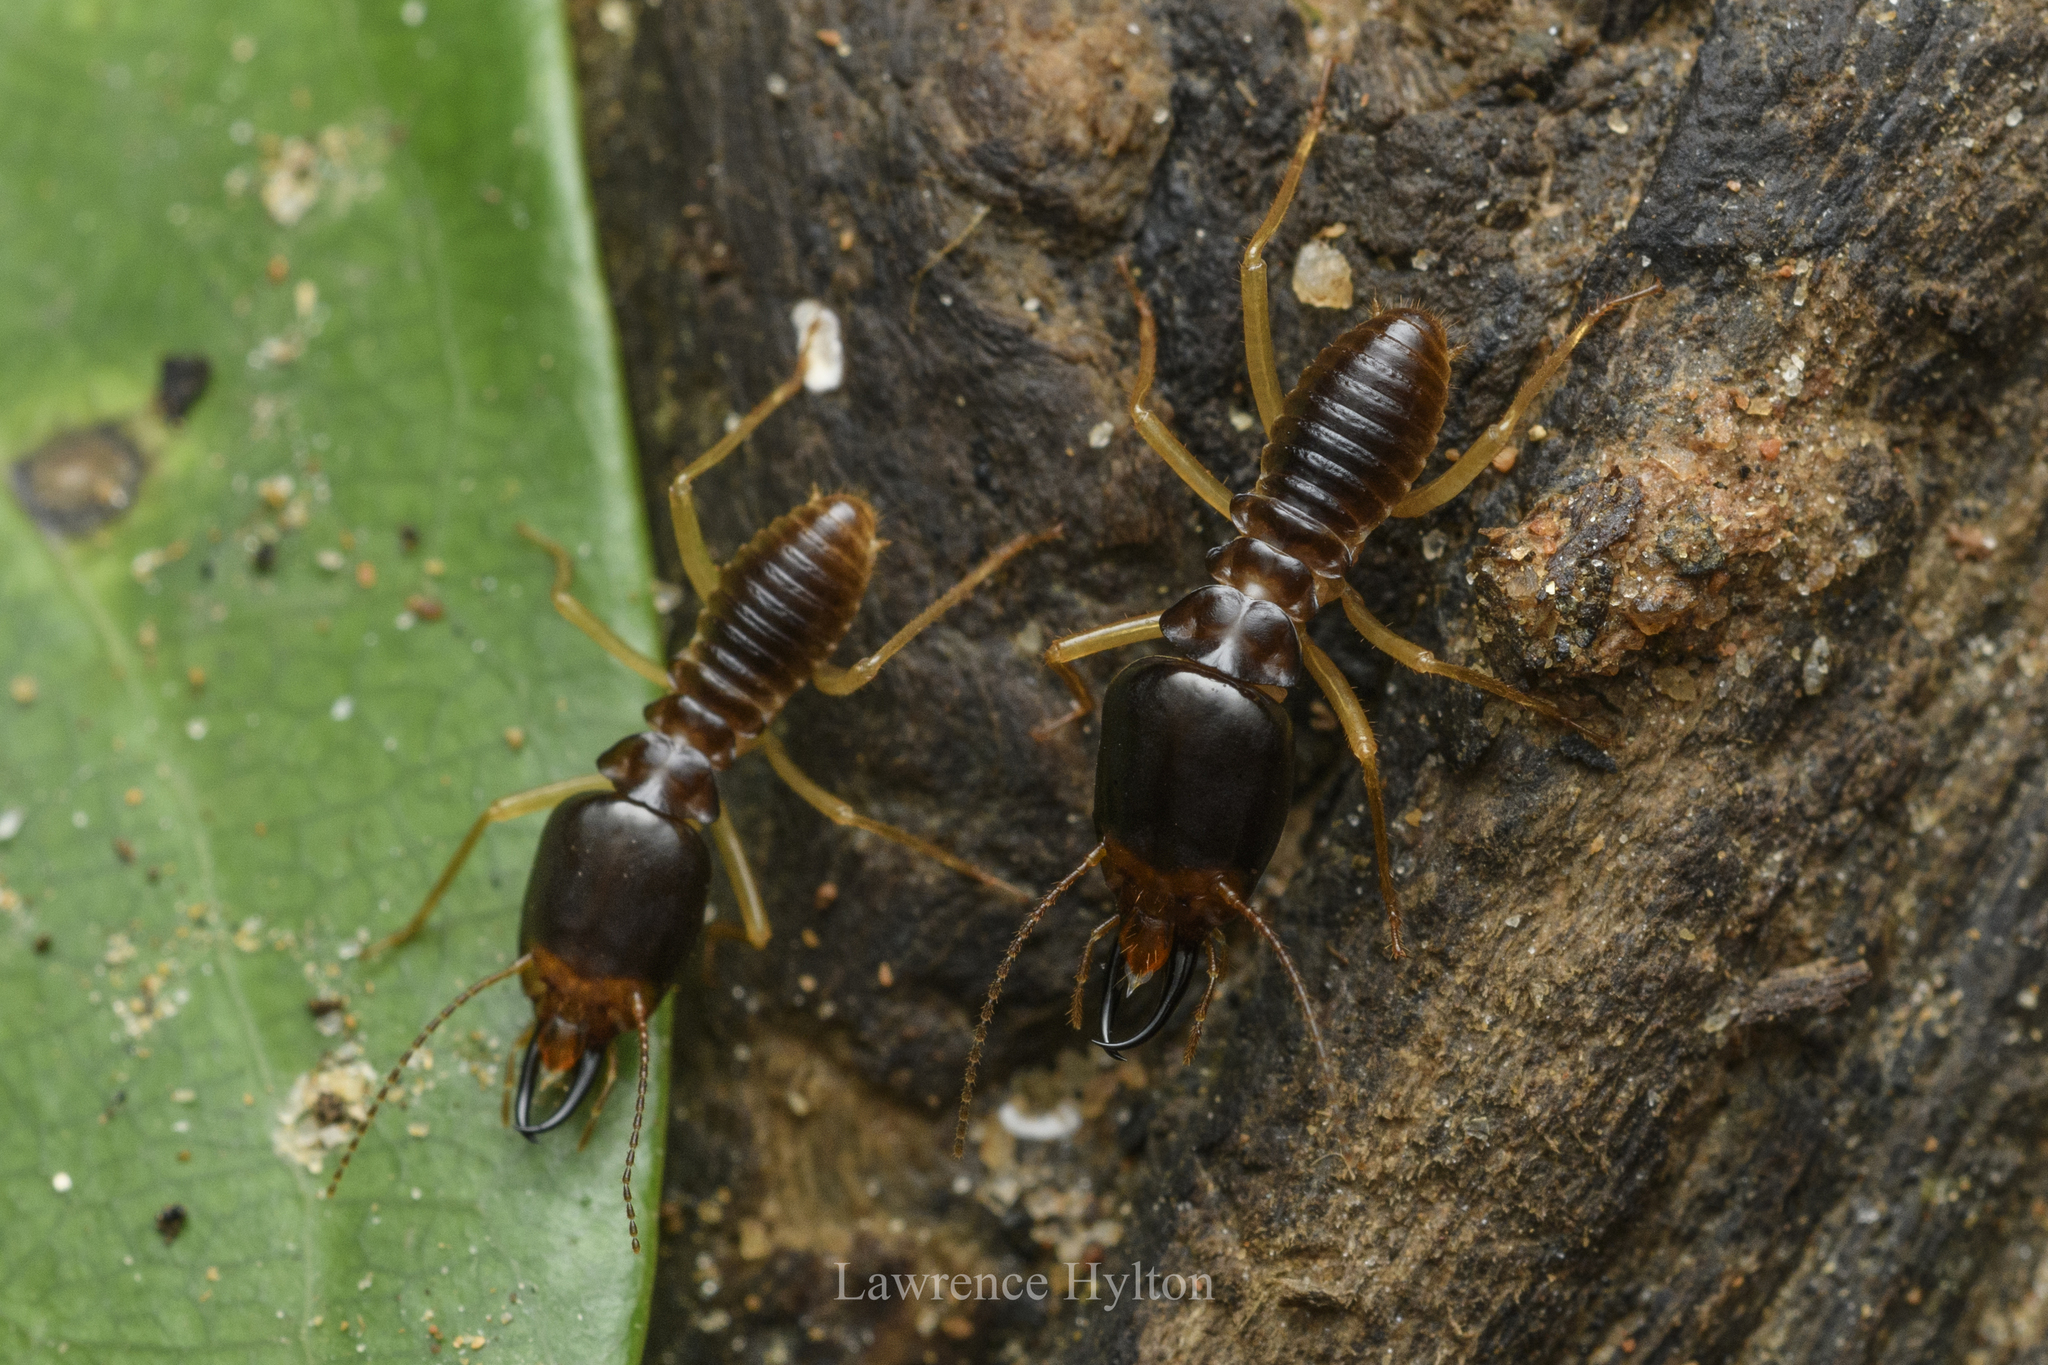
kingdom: Animalia
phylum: Arthropoda
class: Insecta
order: Blattodea
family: Termitidae
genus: Macrotermes
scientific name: Macrotermes carbonarius
